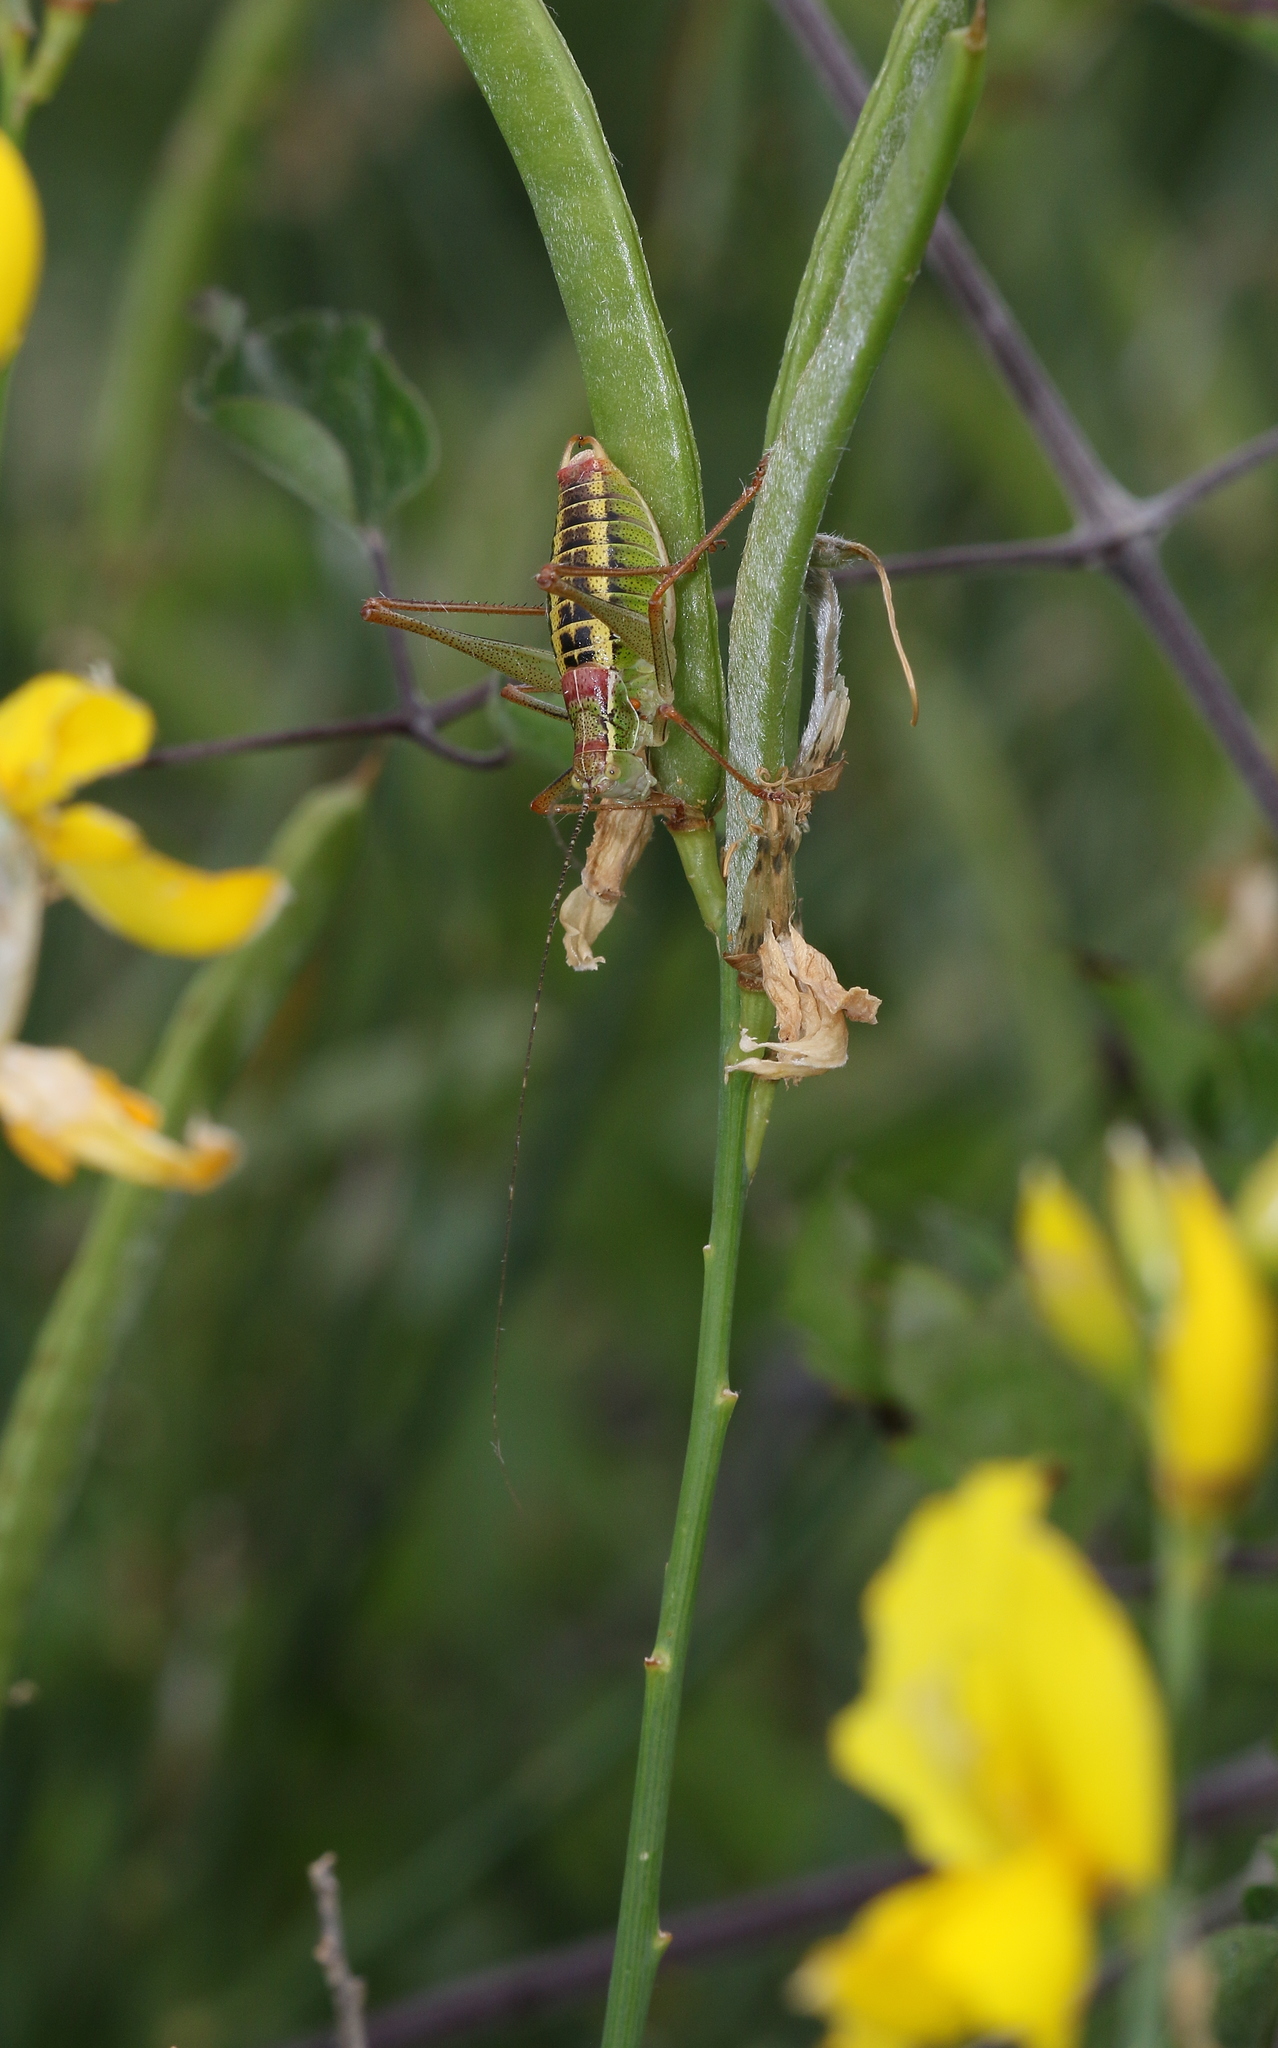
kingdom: Animalia
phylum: Arthropoda
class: Insecta
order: Orthoptera
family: Tettigoniidae
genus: Poecilimon
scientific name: Poecilimon tessellatus
